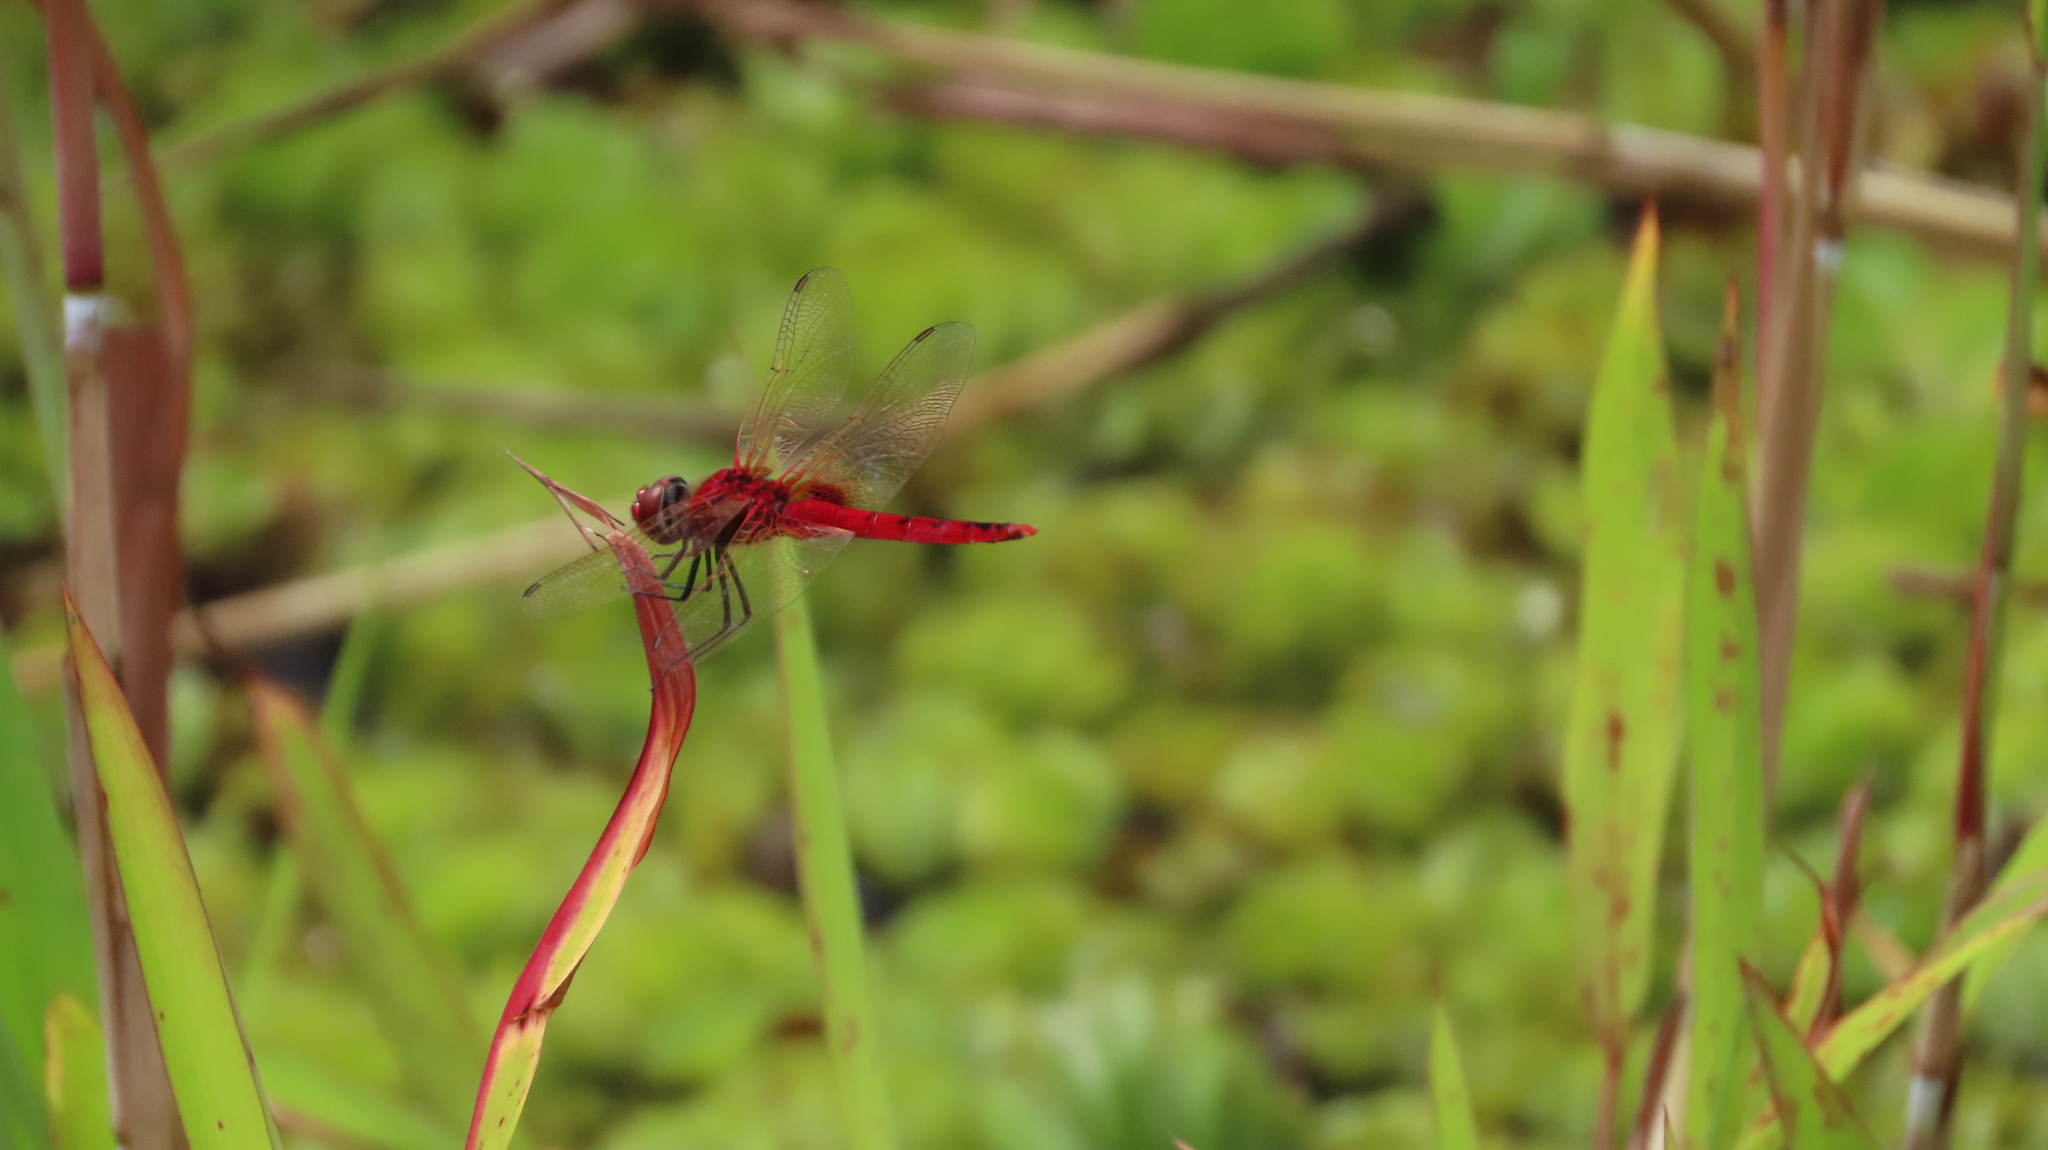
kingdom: Animalia
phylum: Arthropoda
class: Insecta
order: Odonata
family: Libellulidae
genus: Urothemis
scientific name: Urothemis signata
